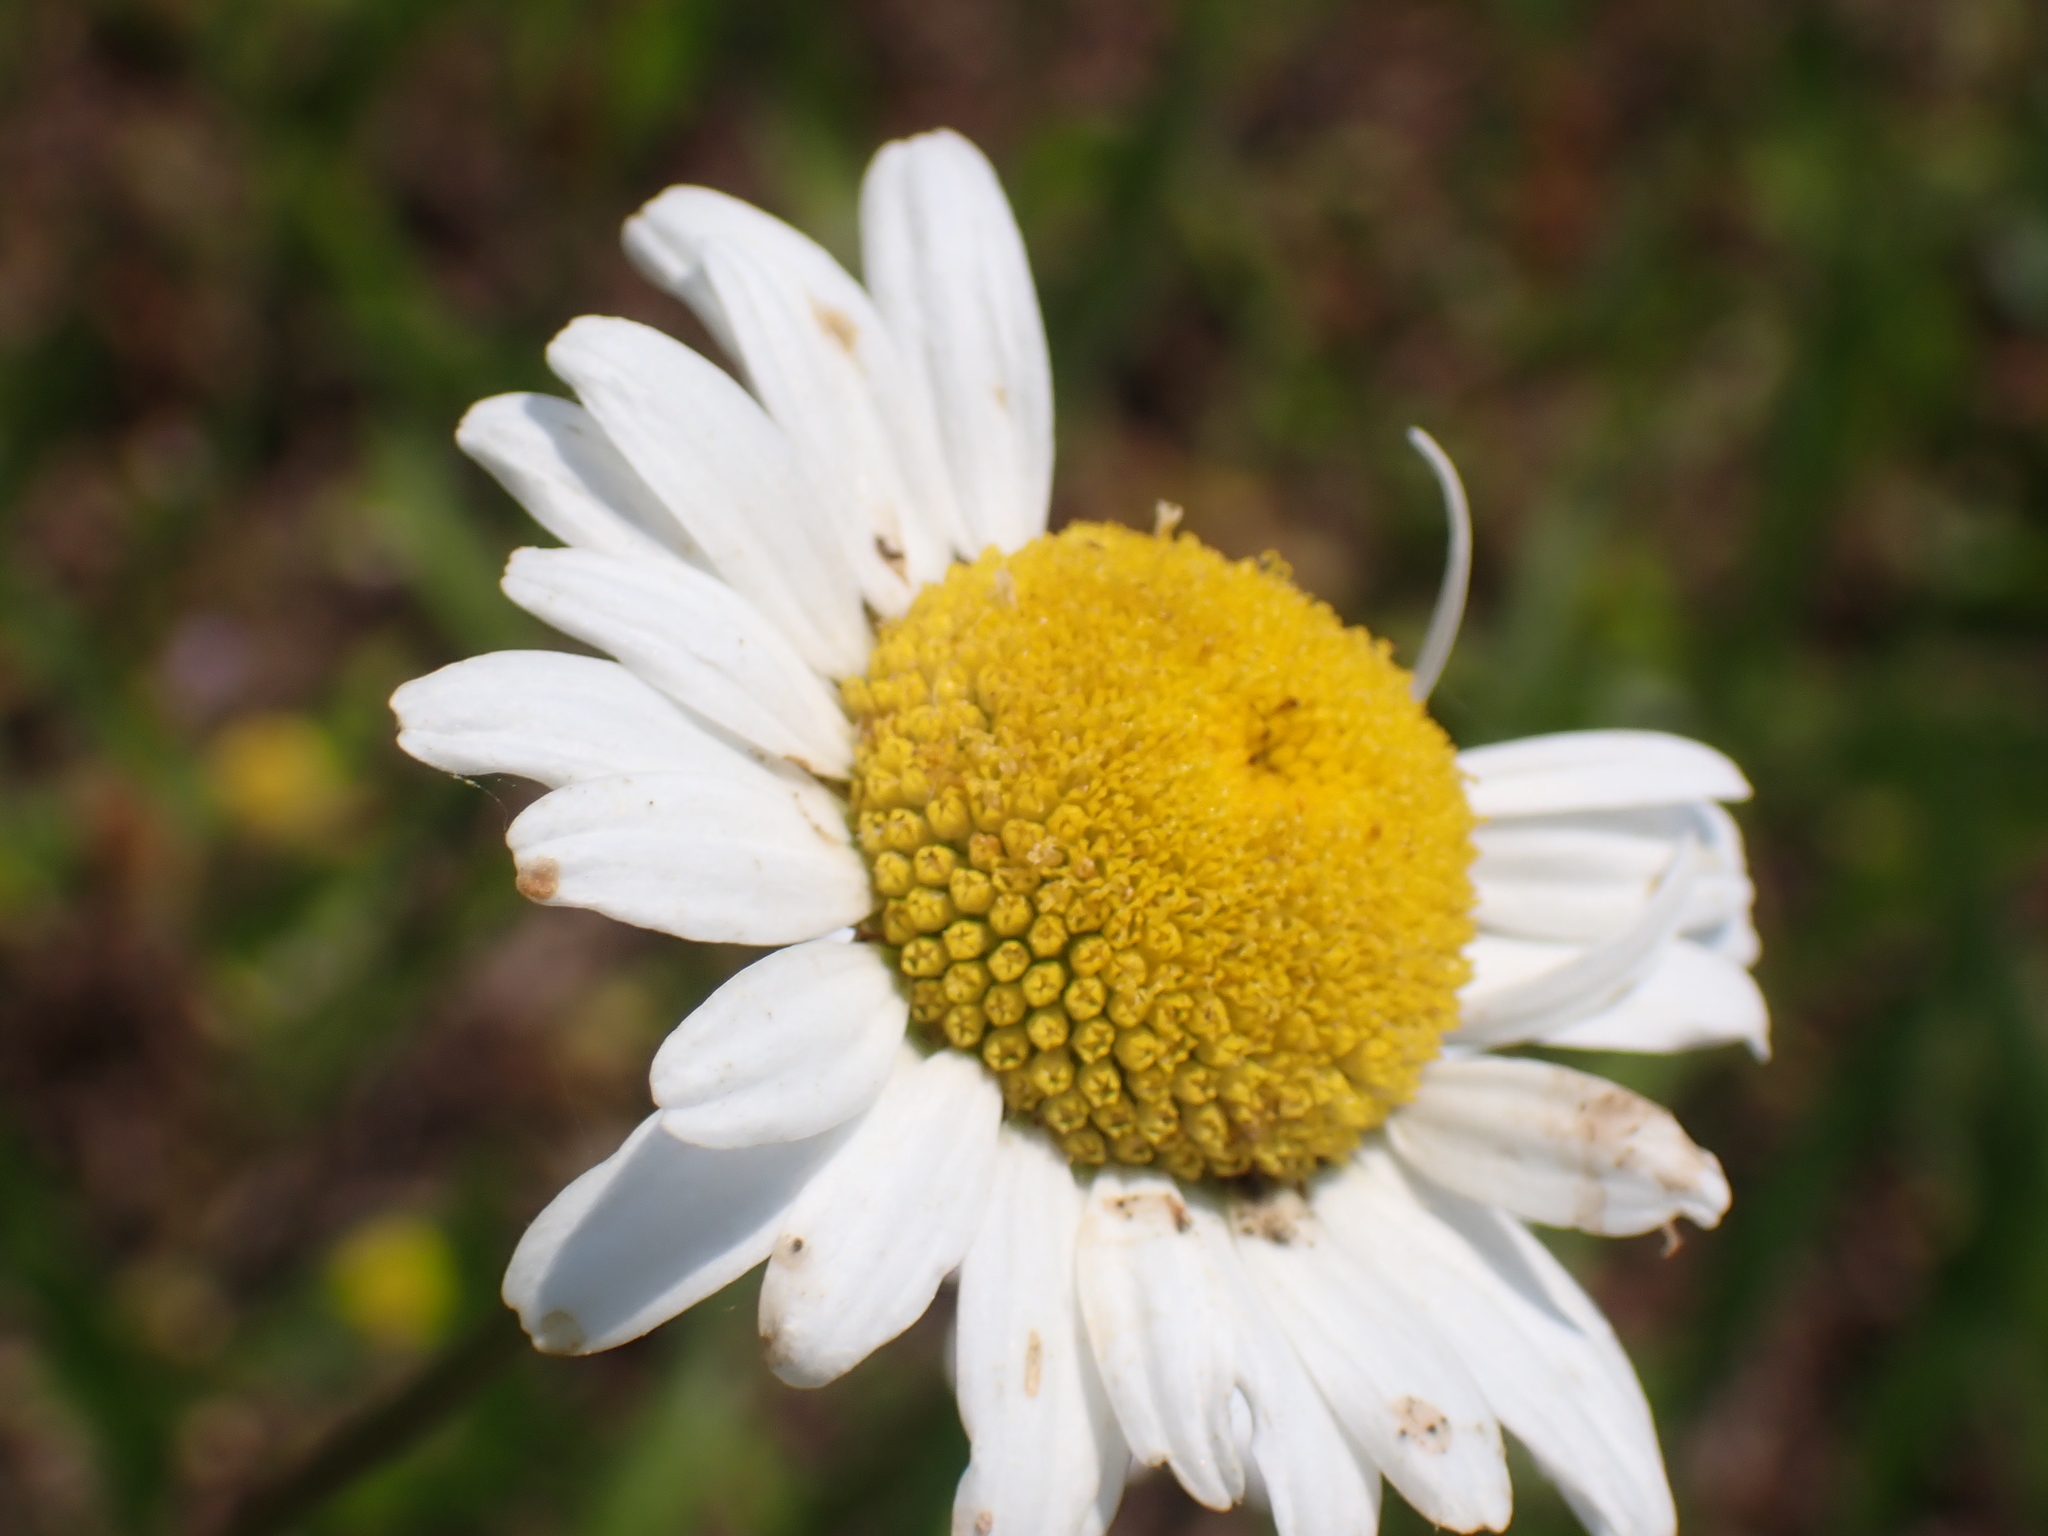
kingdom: Plantae
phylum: Tracheophyta
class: Magnoliopsida
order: Asterales
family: Asteraceae
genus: Leucanthemum
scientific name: Leucanthemum vulgare
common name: Oxeye daisy
